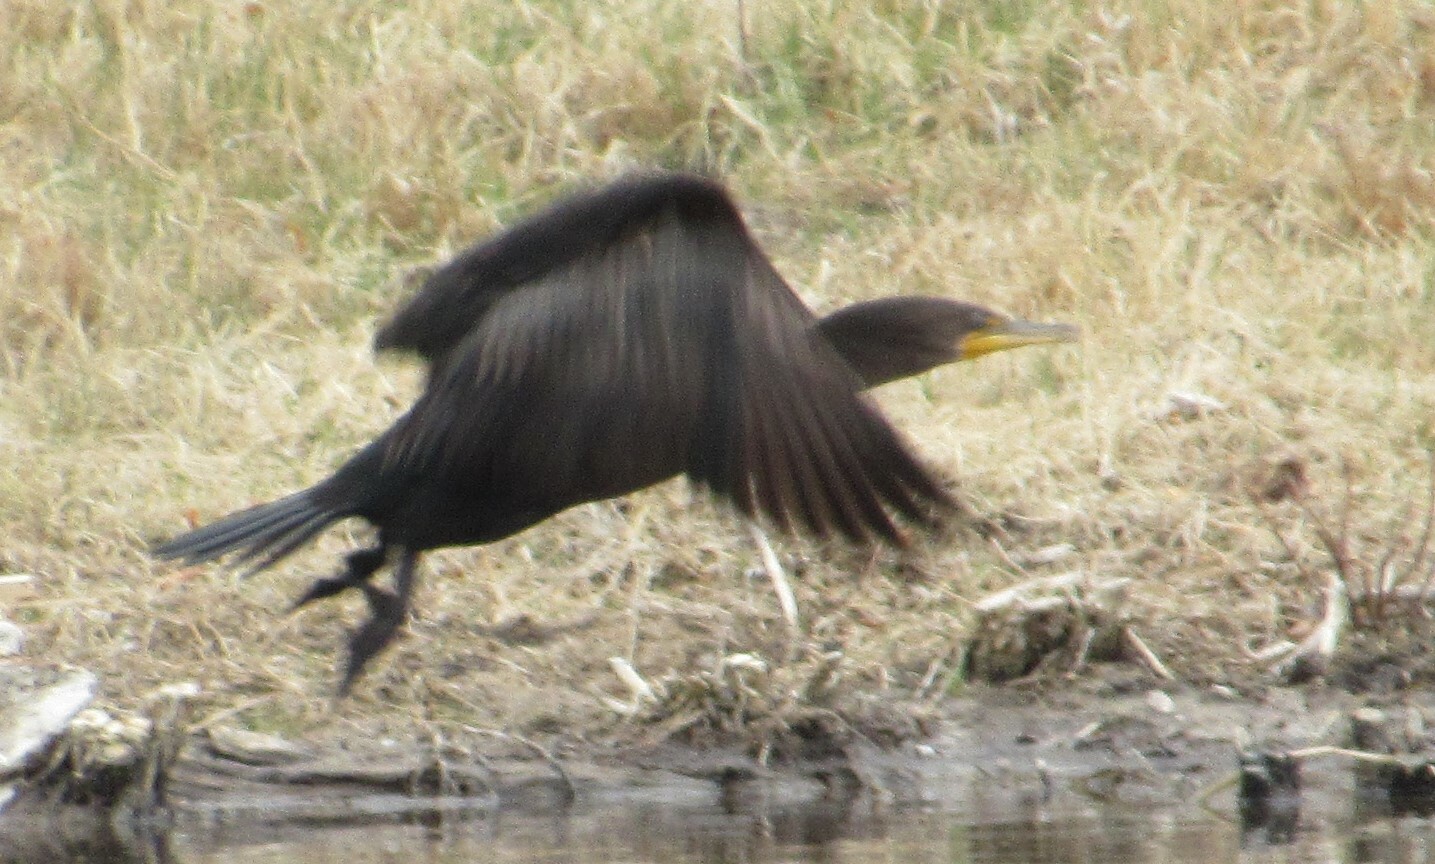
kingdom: Animalia
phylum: Chordata
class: Aves
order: Suliformes
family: Phalacrocoracidae
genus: Phalacrocorax
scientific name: Phalacrocorax auritus
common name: Double-crested cormorant
